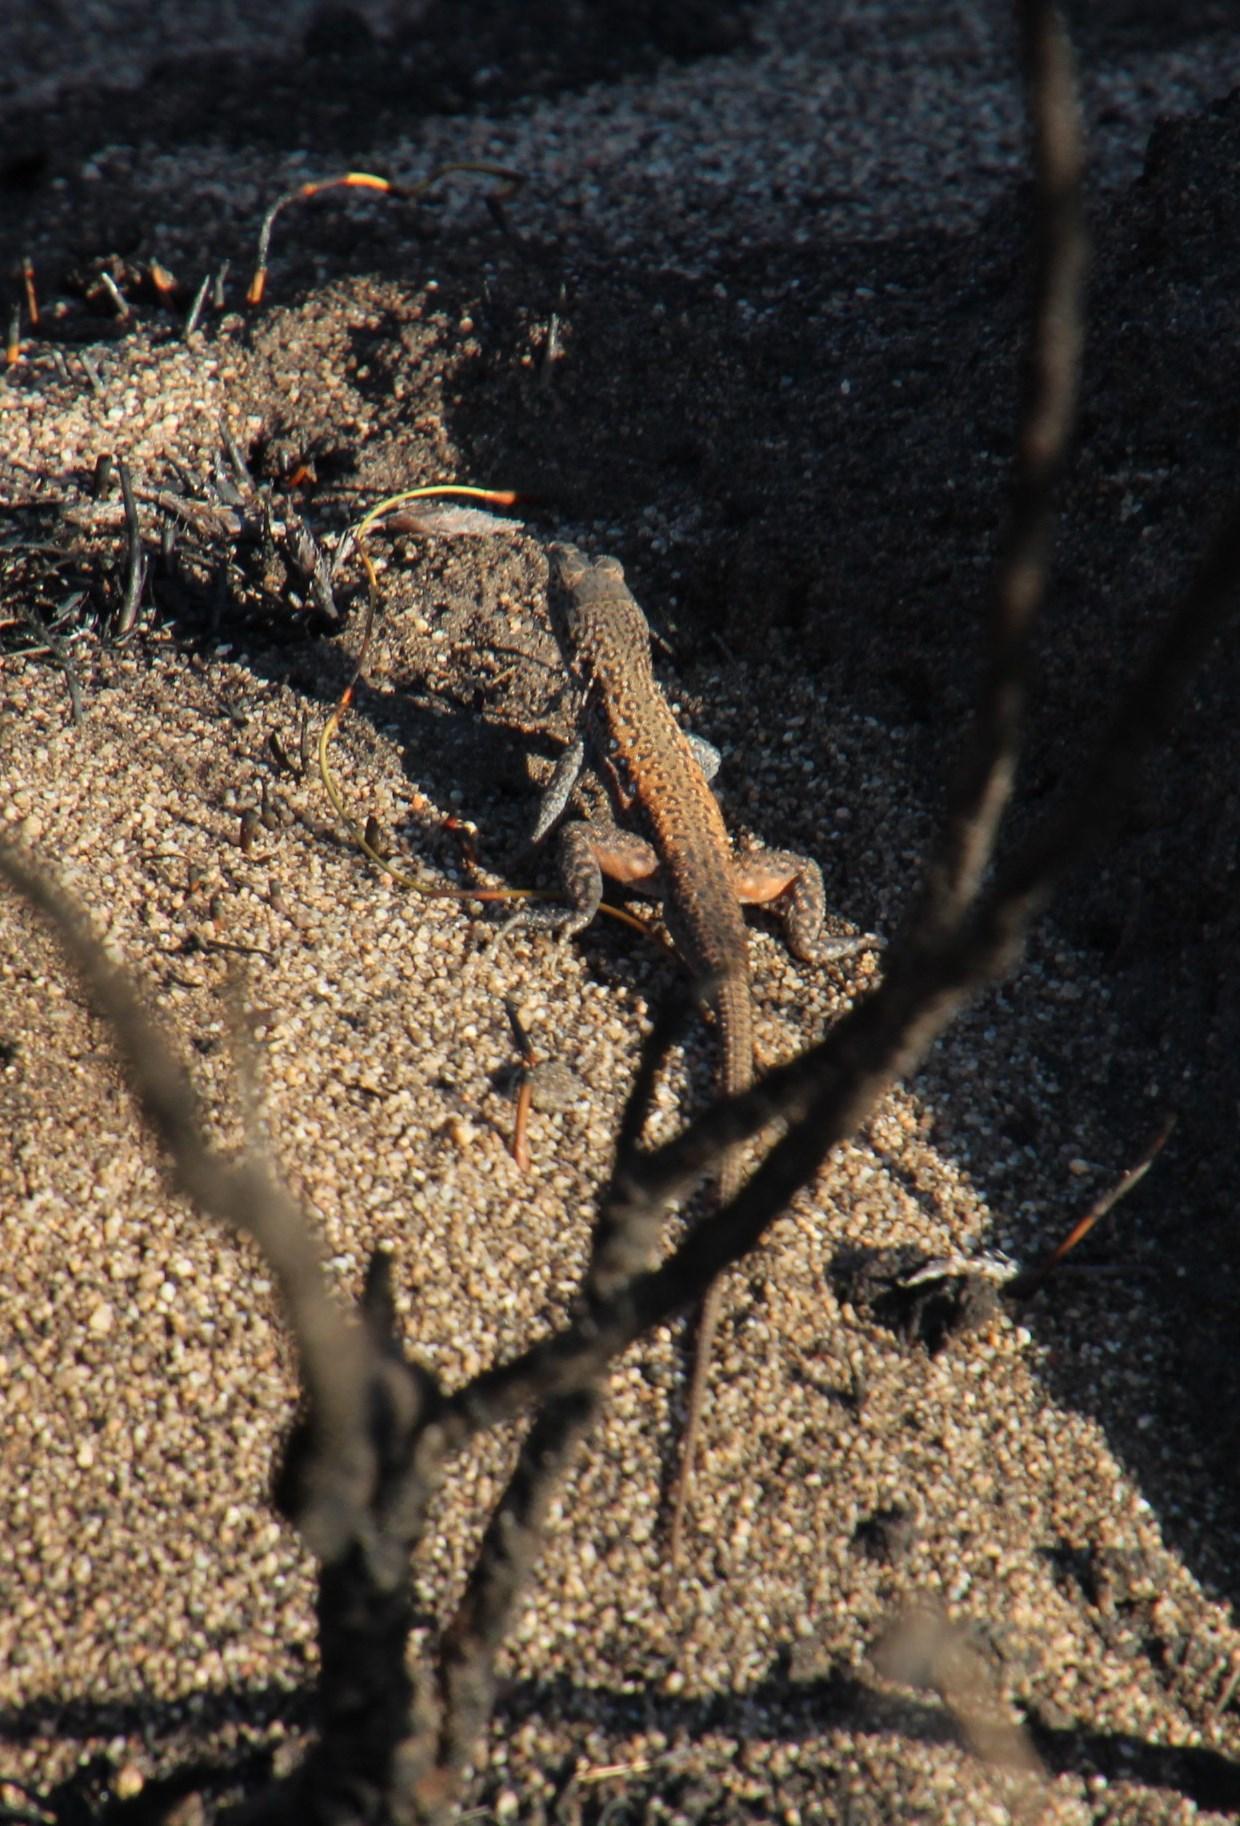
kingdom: Animalia
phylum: Chordata
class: Squamata
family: Lacertidae
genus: Pedioplanis
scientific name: Pedioplanis lineoocellata
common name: Spotted sand lizard
